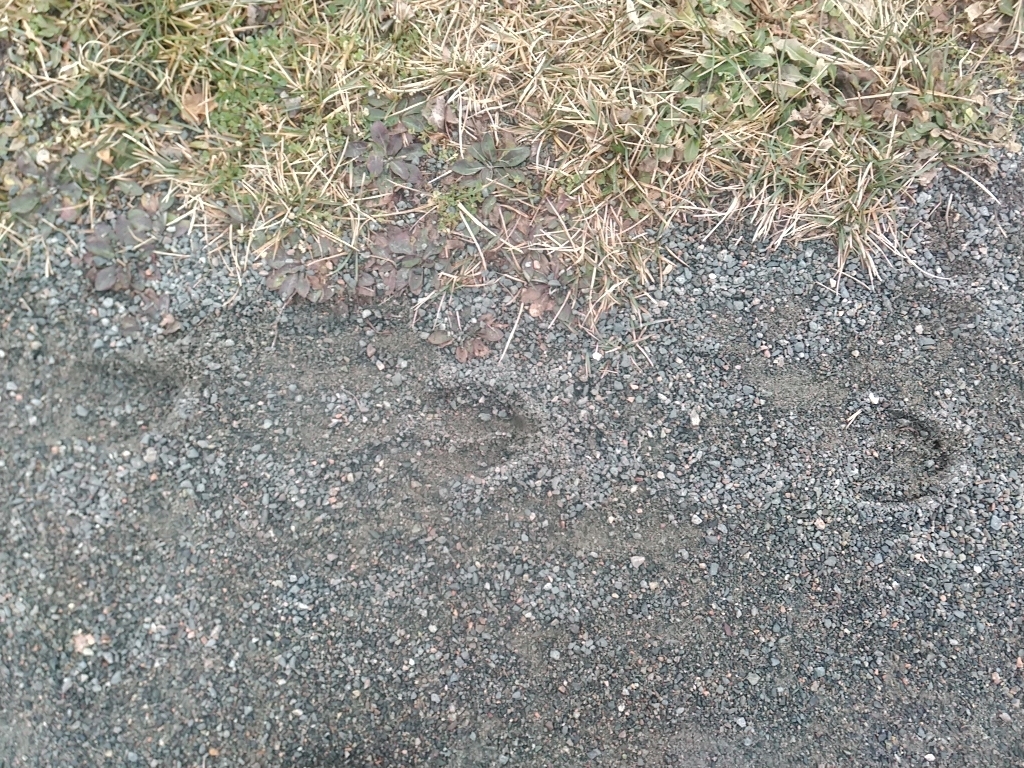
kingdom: Animalia
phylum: Chordata
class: Mammalia
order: Artiodactyla
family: Cervidae
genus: Odocoileus
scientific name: Odocoileus virginianus
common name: White-tailed deer
